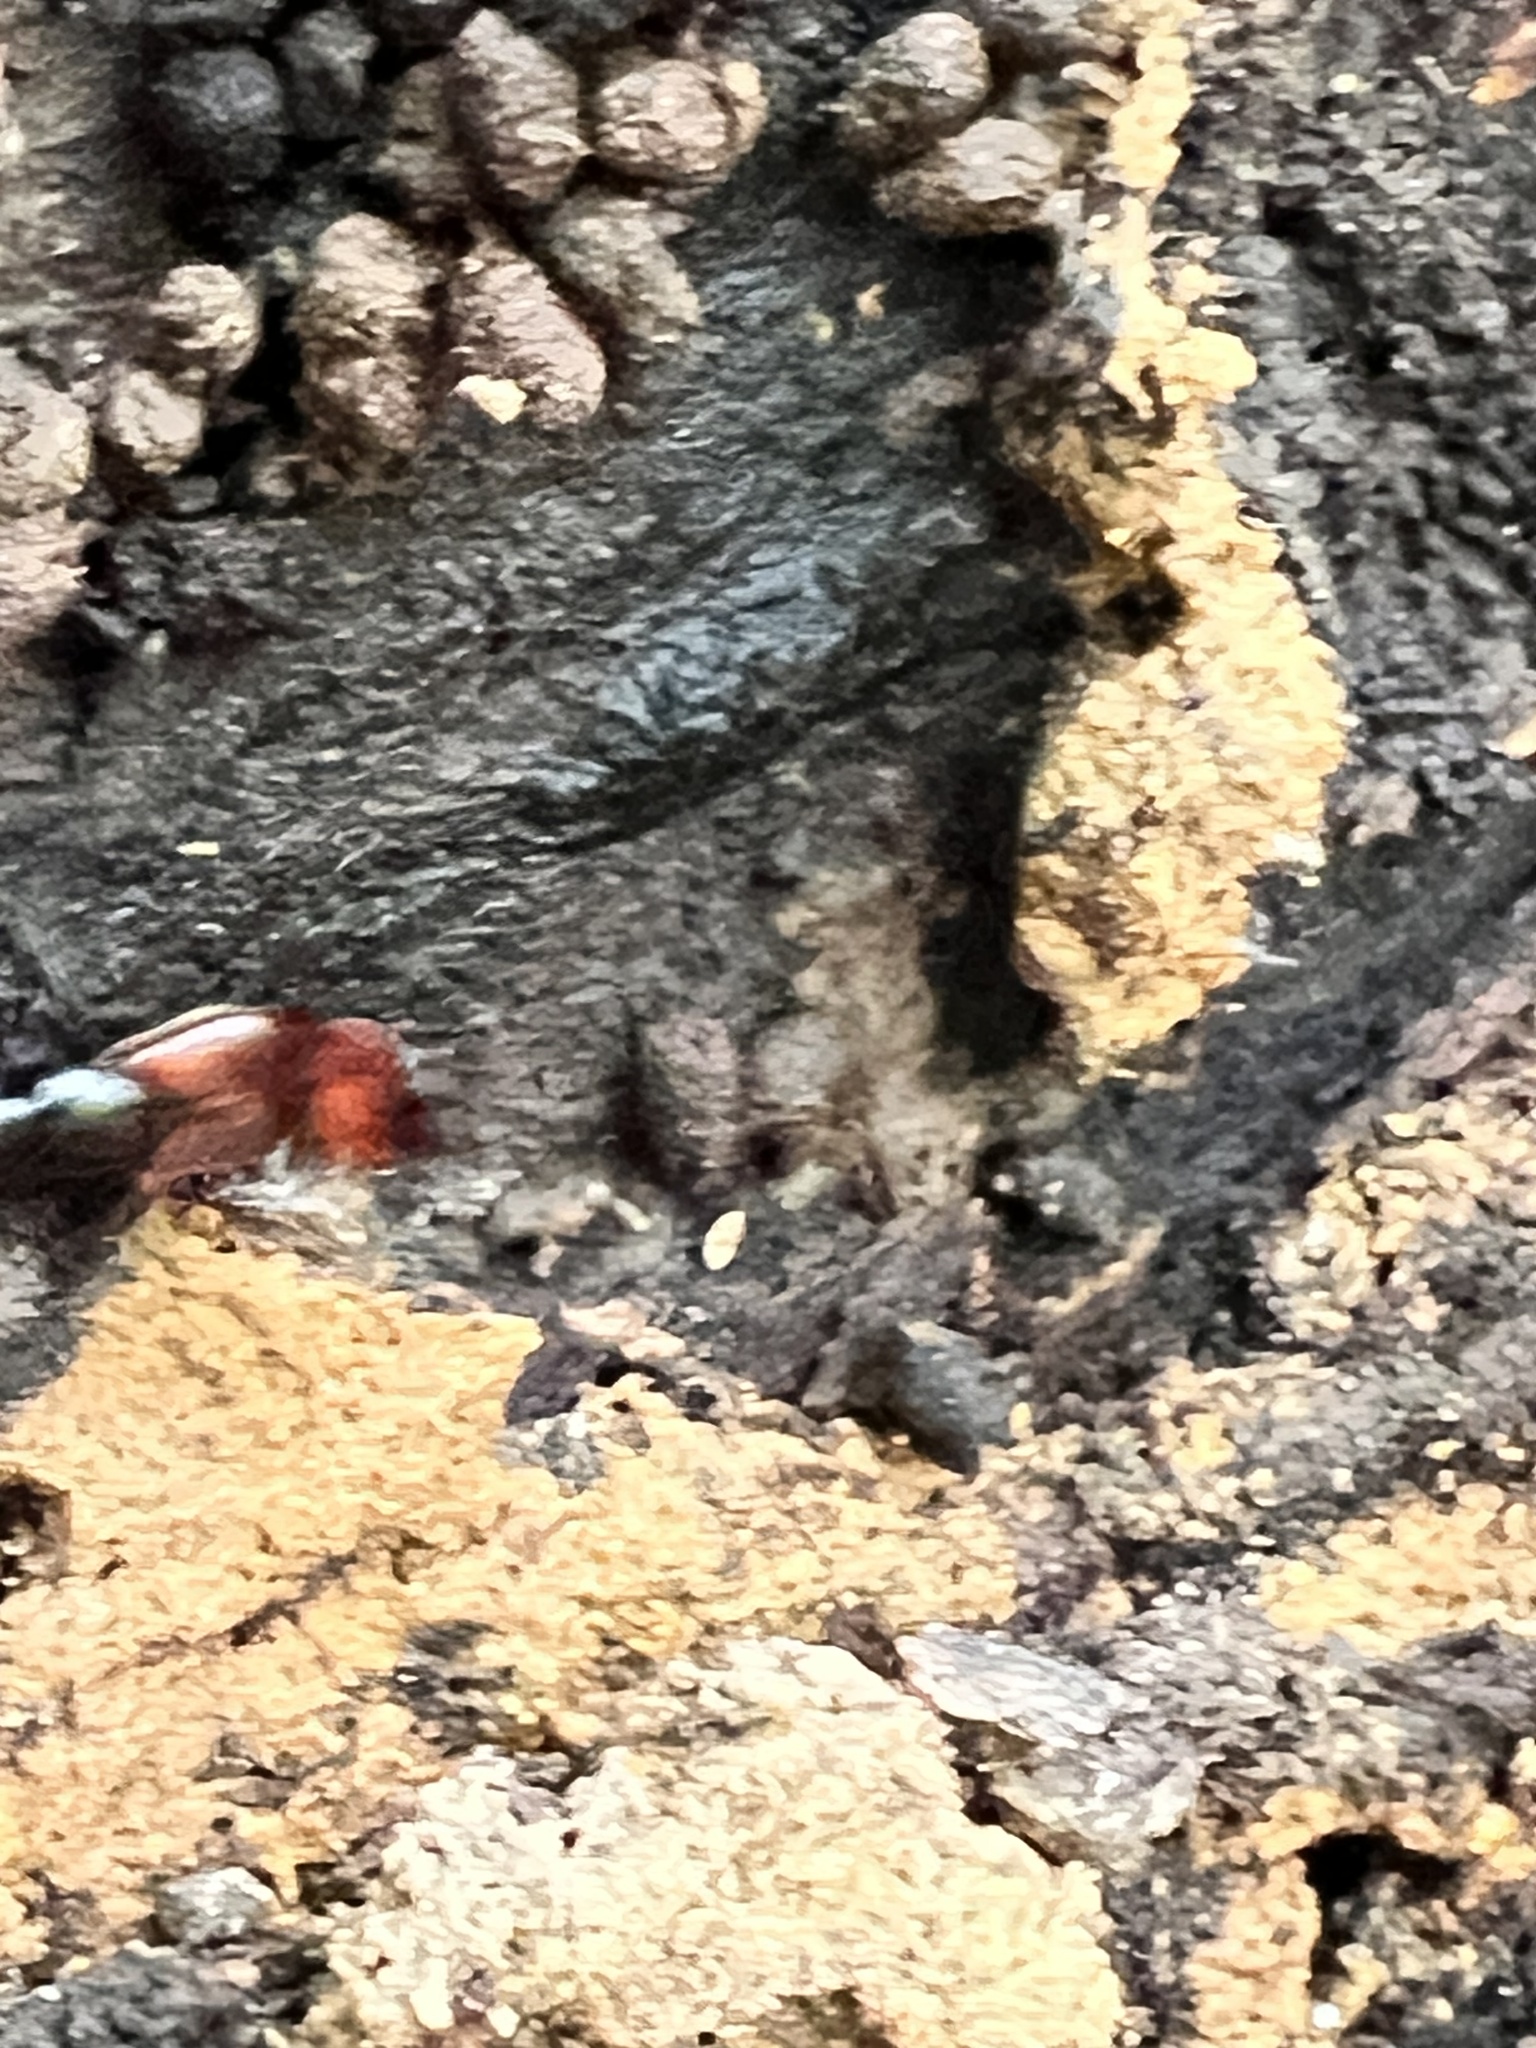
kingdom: Animalia
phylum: Arthropoda
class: Insecta
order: Coleoptera
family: Staphylinidae
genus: Hesperus
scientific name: Hesperus baltimorensis
